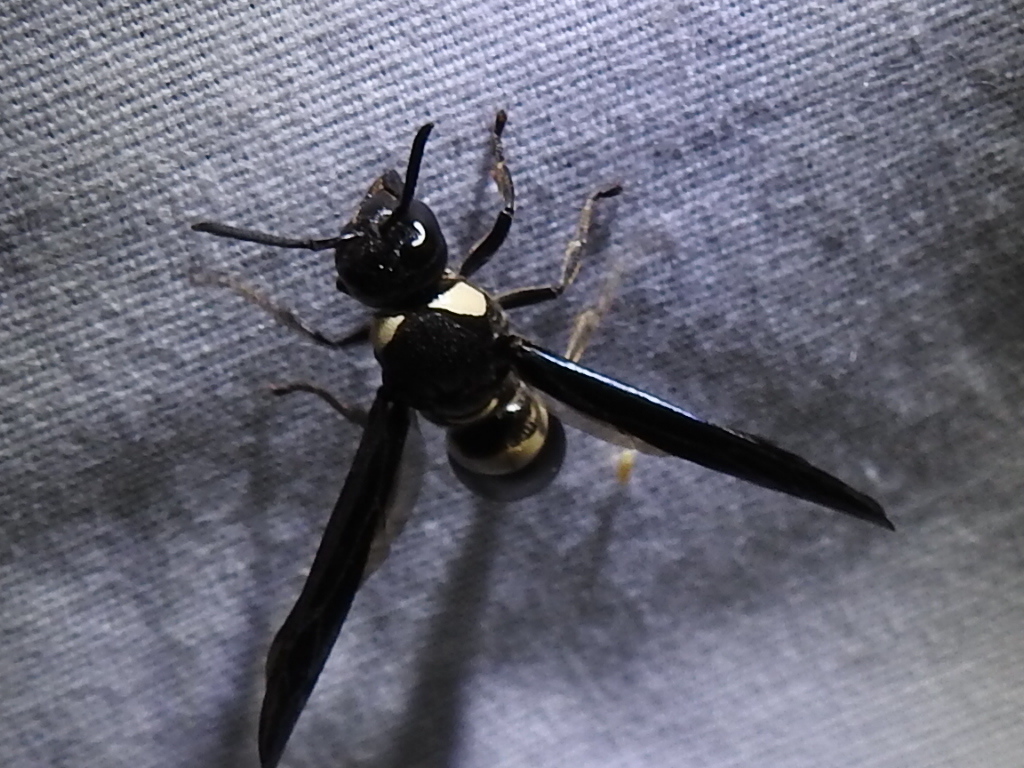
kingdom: Animalia
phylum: Arthropoda
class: Insecta
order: Hymenoptera
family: Eumenidae
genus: Monobia
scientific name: Monobia quadridens
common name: Four-toothed mason wasp
